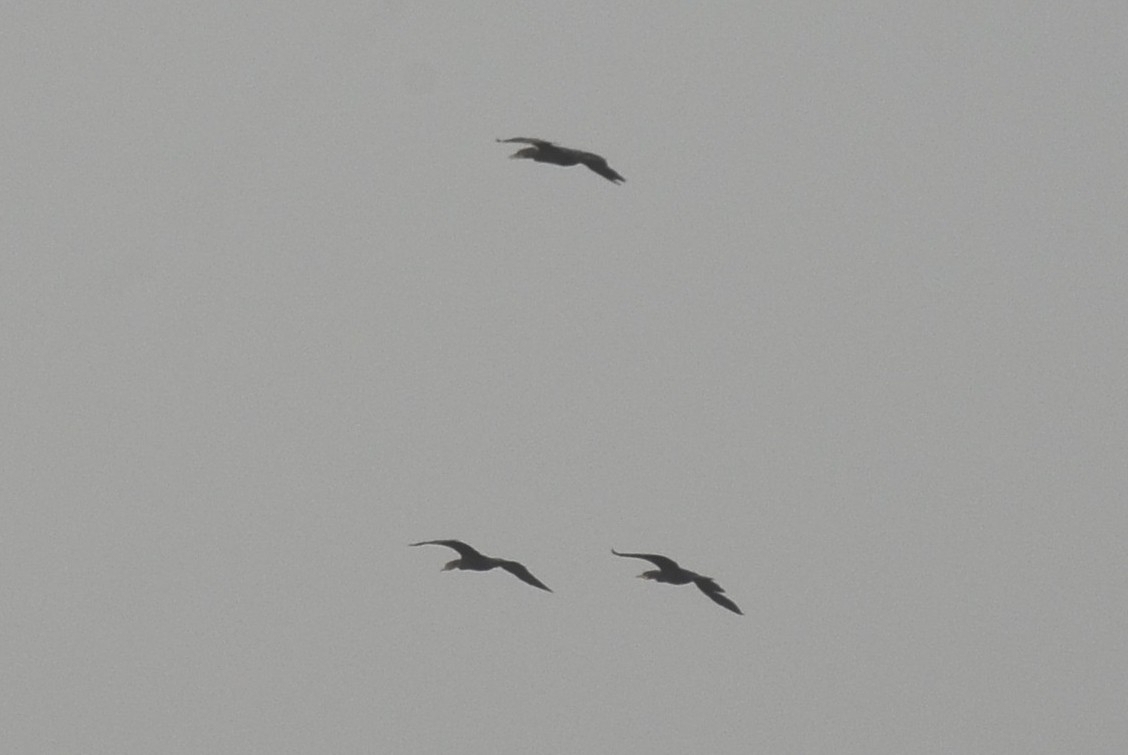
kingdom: Animalia
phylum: Chordata
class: Aves
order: Suliformes
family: Phalacrocoracidae
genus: Phalacrocorax
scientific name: Phalacrocorax fuscicollis
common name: Indian cormorant
